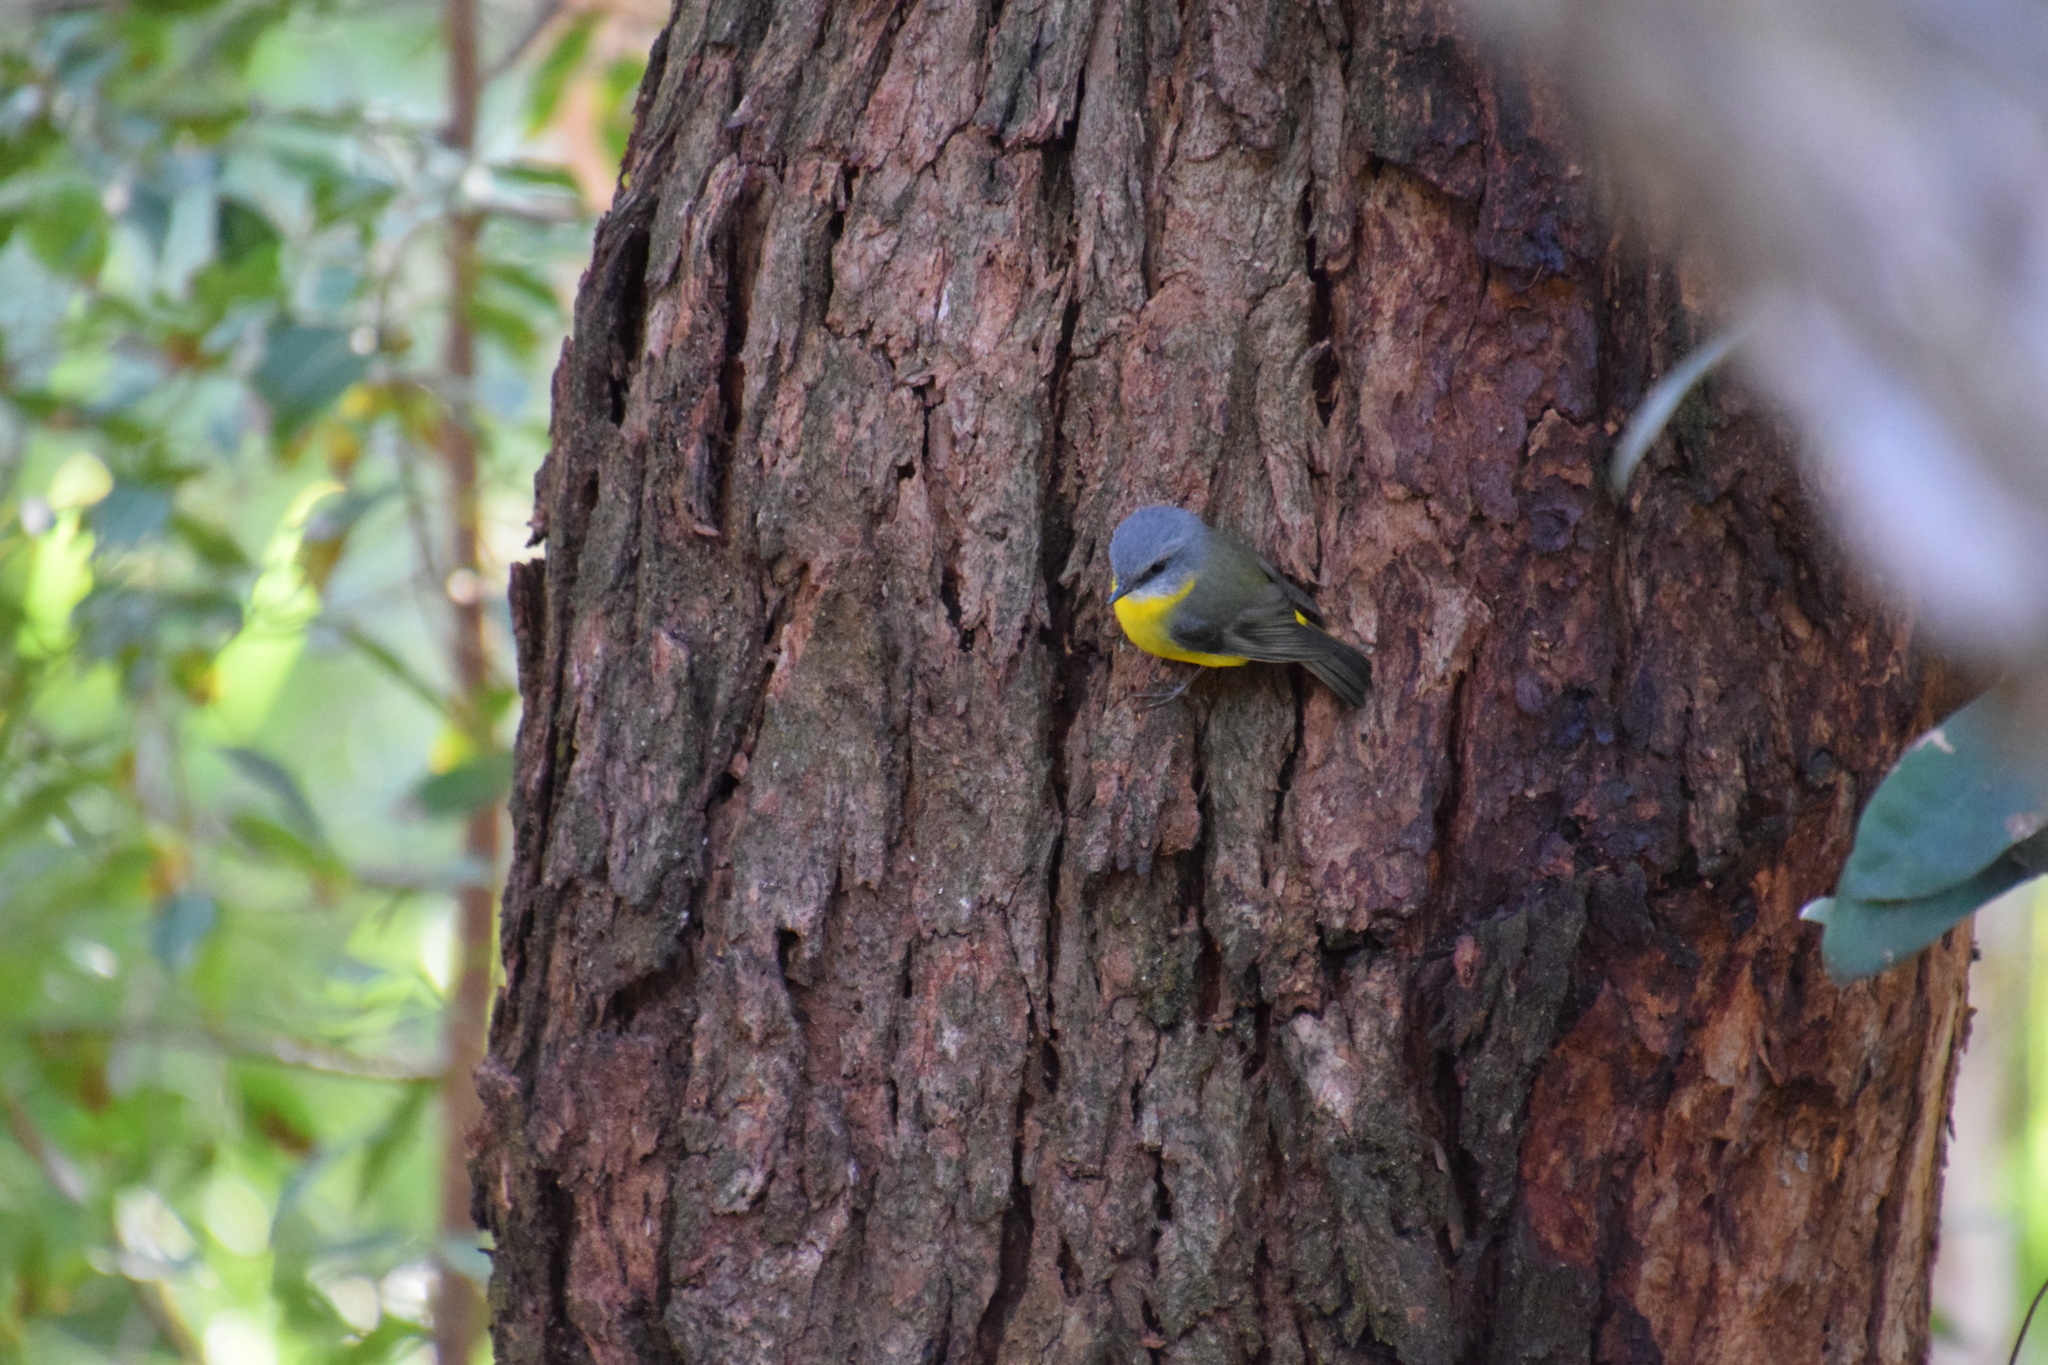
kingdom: Animalia
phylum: Chordata
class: Aves
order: Passeriformes
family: Petroicidae
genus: Eopsaltria
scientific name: Eopsaltria australis
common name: Eastern yellow robin
